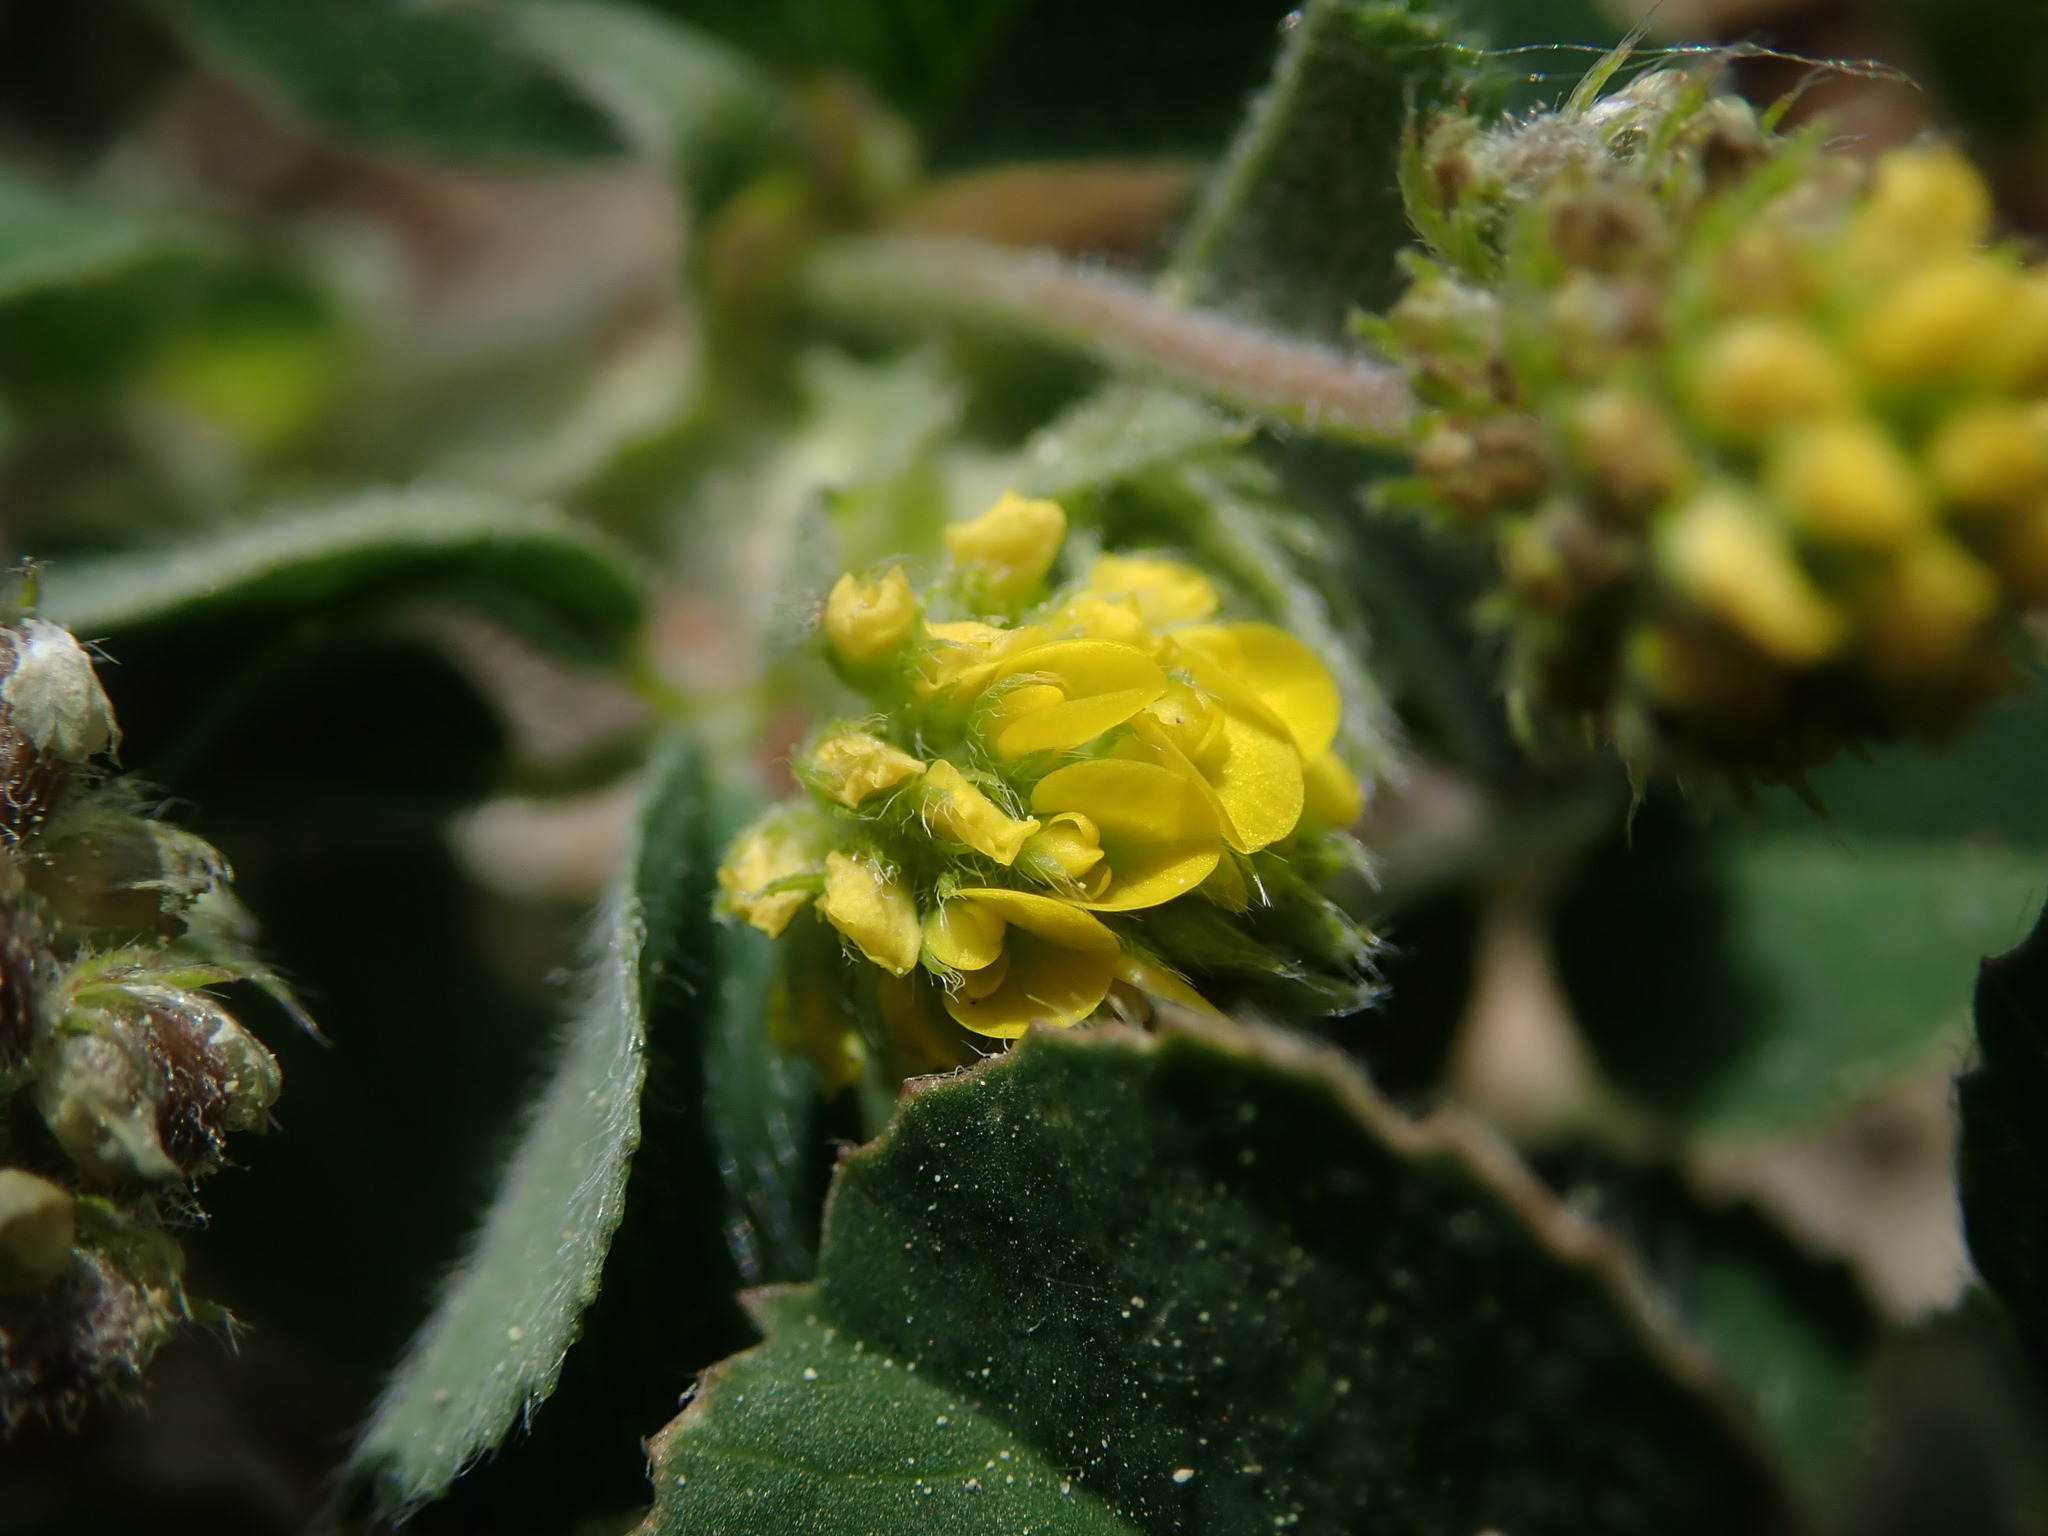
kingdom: Plantae
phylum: Tracheophyta
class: Magnoliopsida
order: Fabales
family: Fabaceae
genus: Medicago
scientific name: Medicago lupulina
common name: Black medick
